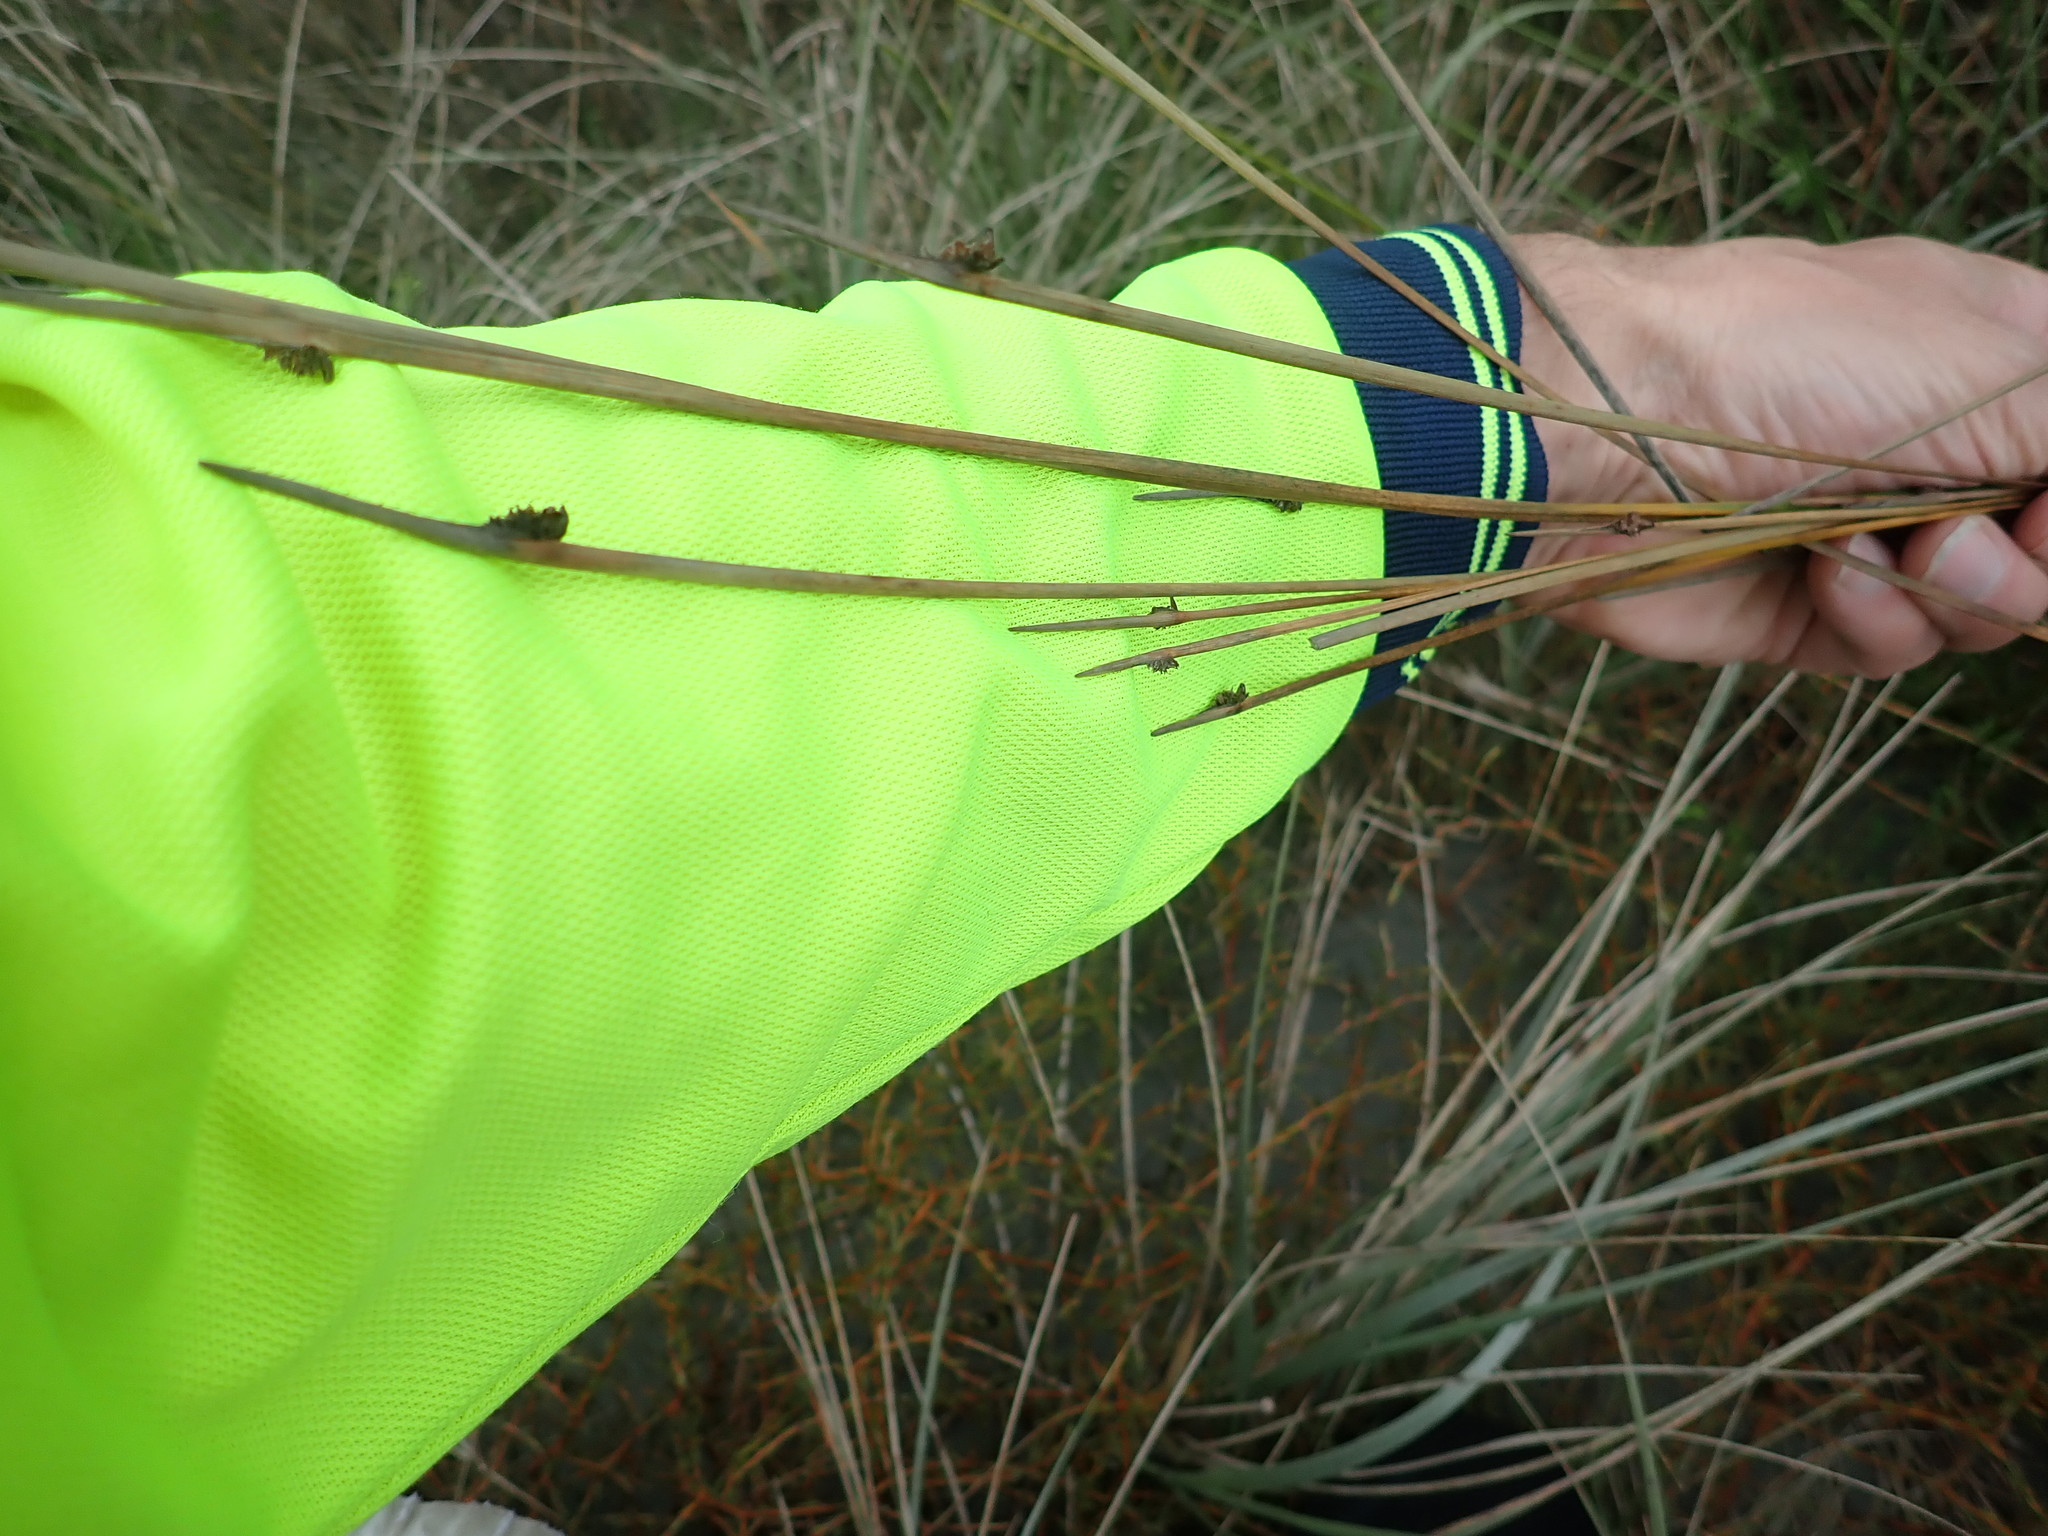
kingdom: Plantae
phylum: Tracheophyta
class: Liliopsida
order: Poales
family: Cyperaceae
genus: Ficinia
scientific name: Ficinia nodosa
